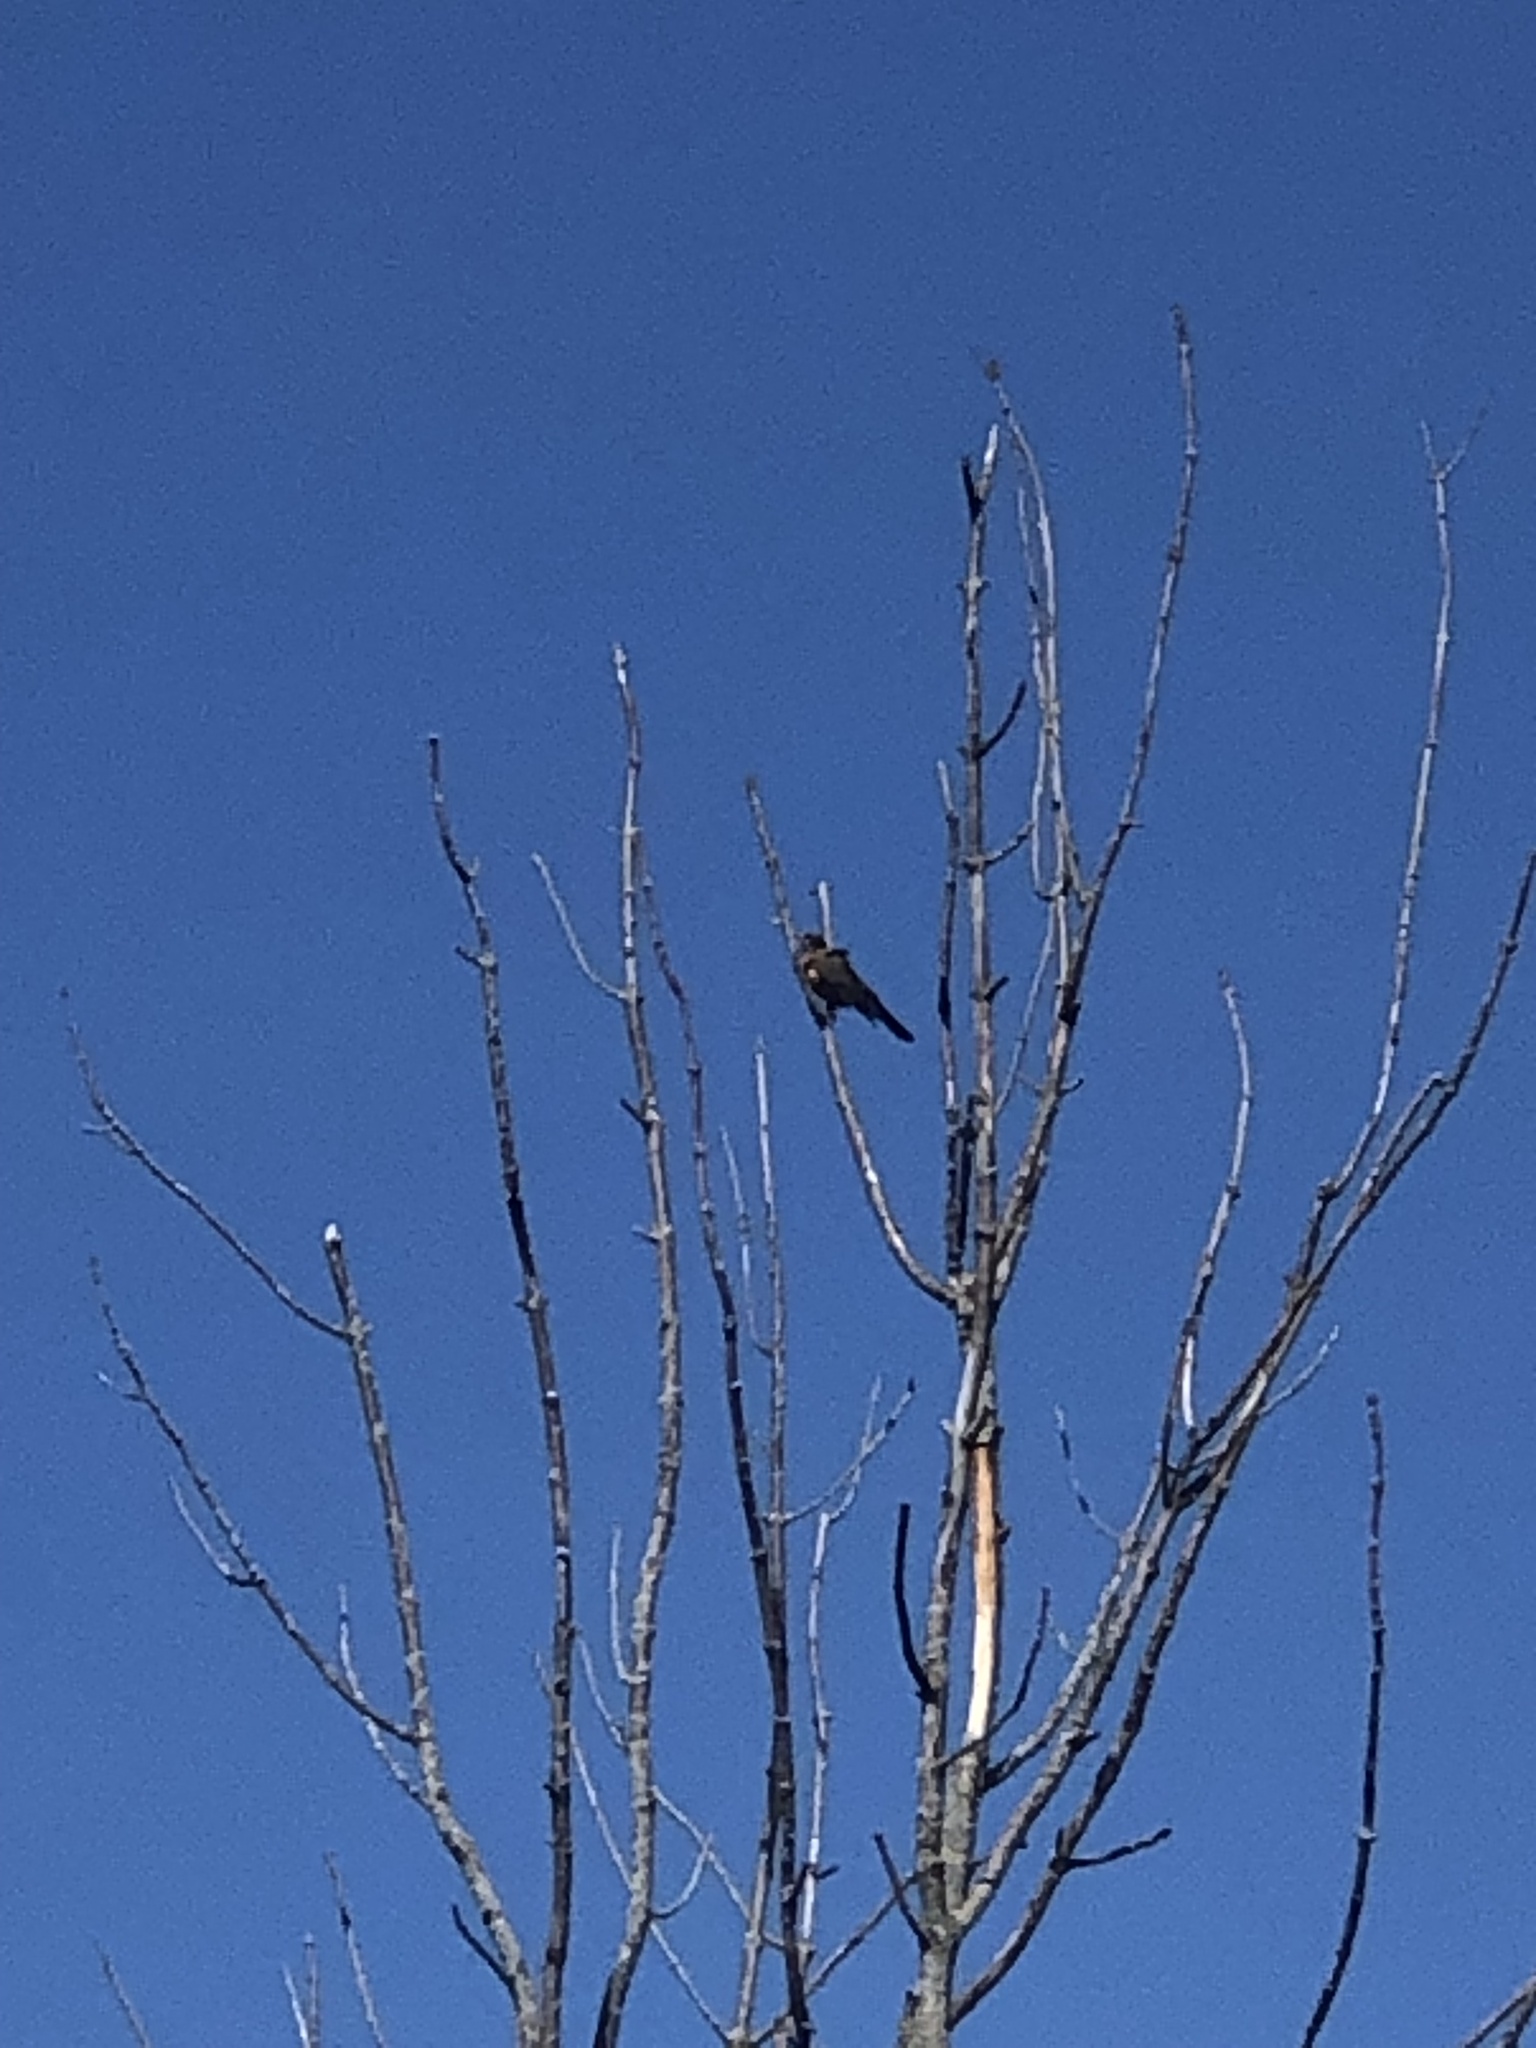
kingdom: Animalia
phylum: Chordata
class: Aves
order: Passeriformes
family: Turdidae
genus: Turdus
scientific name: Turdus migratorius
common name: American robin
